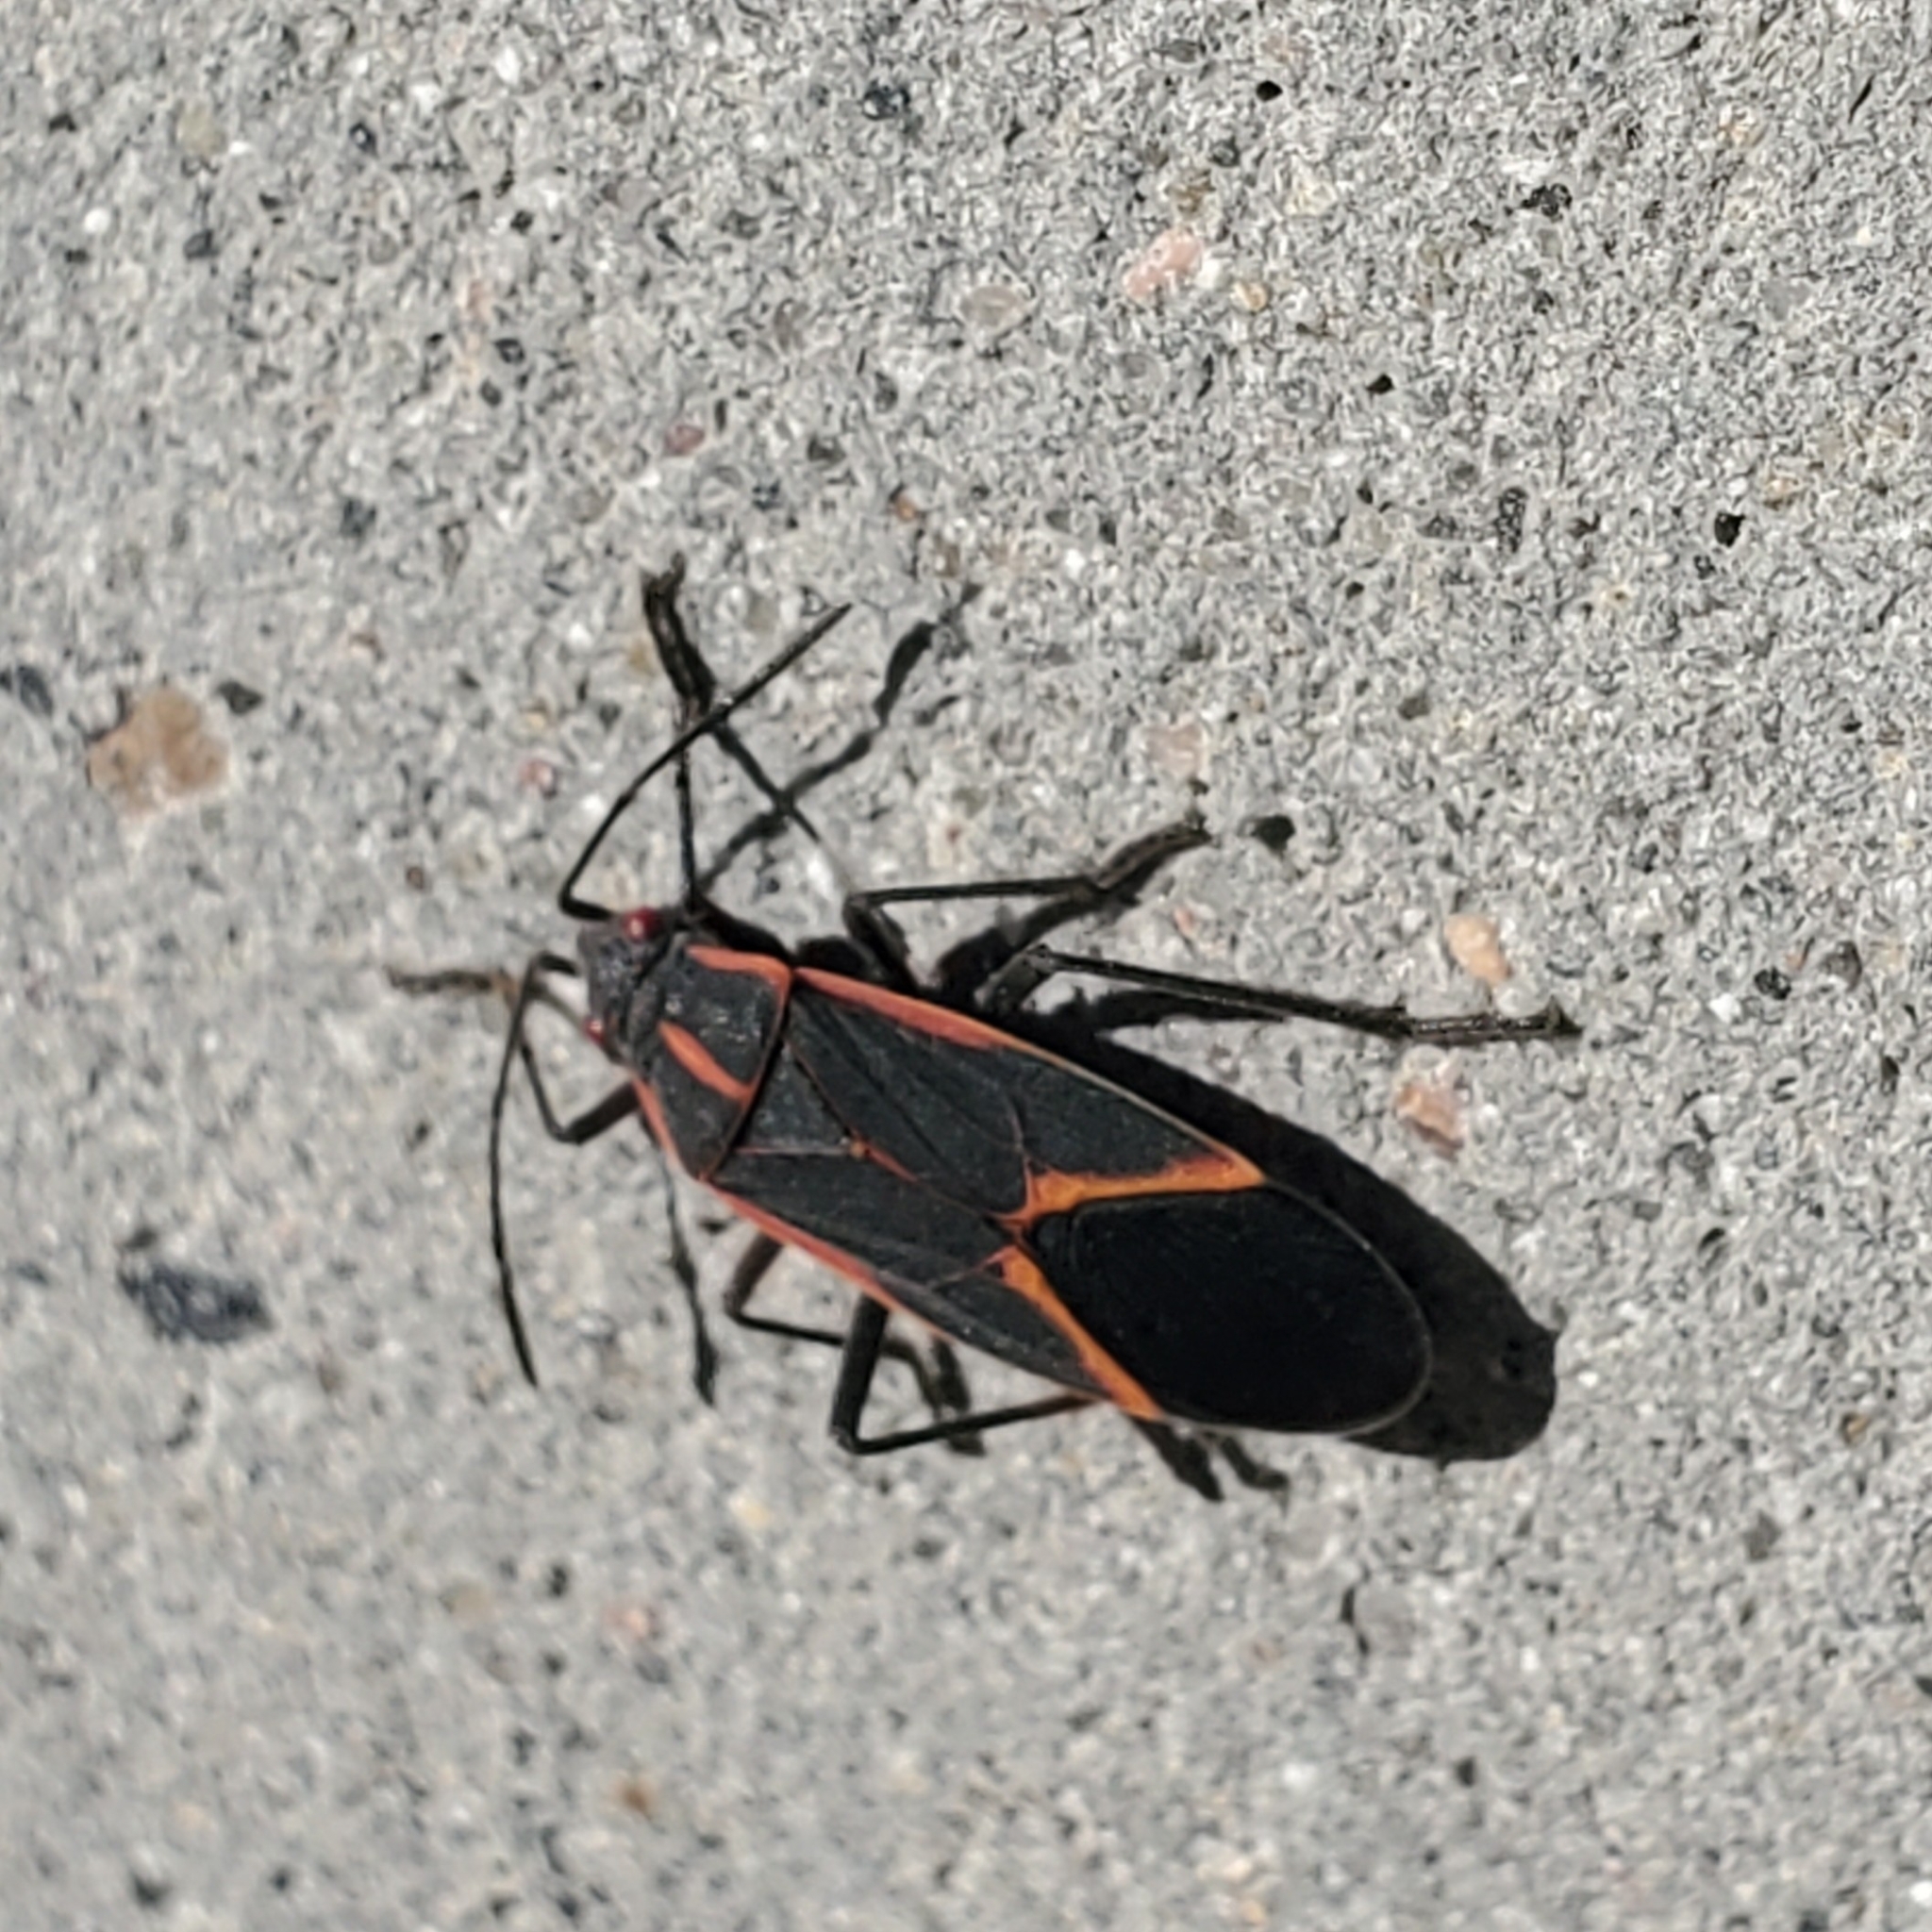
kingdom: Animalia
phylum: Arthropoda
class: Insecta
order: Hemiptera
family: Rhopalidae
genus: Boisea
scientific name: Boisea trivittata
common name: Boxelder bug
